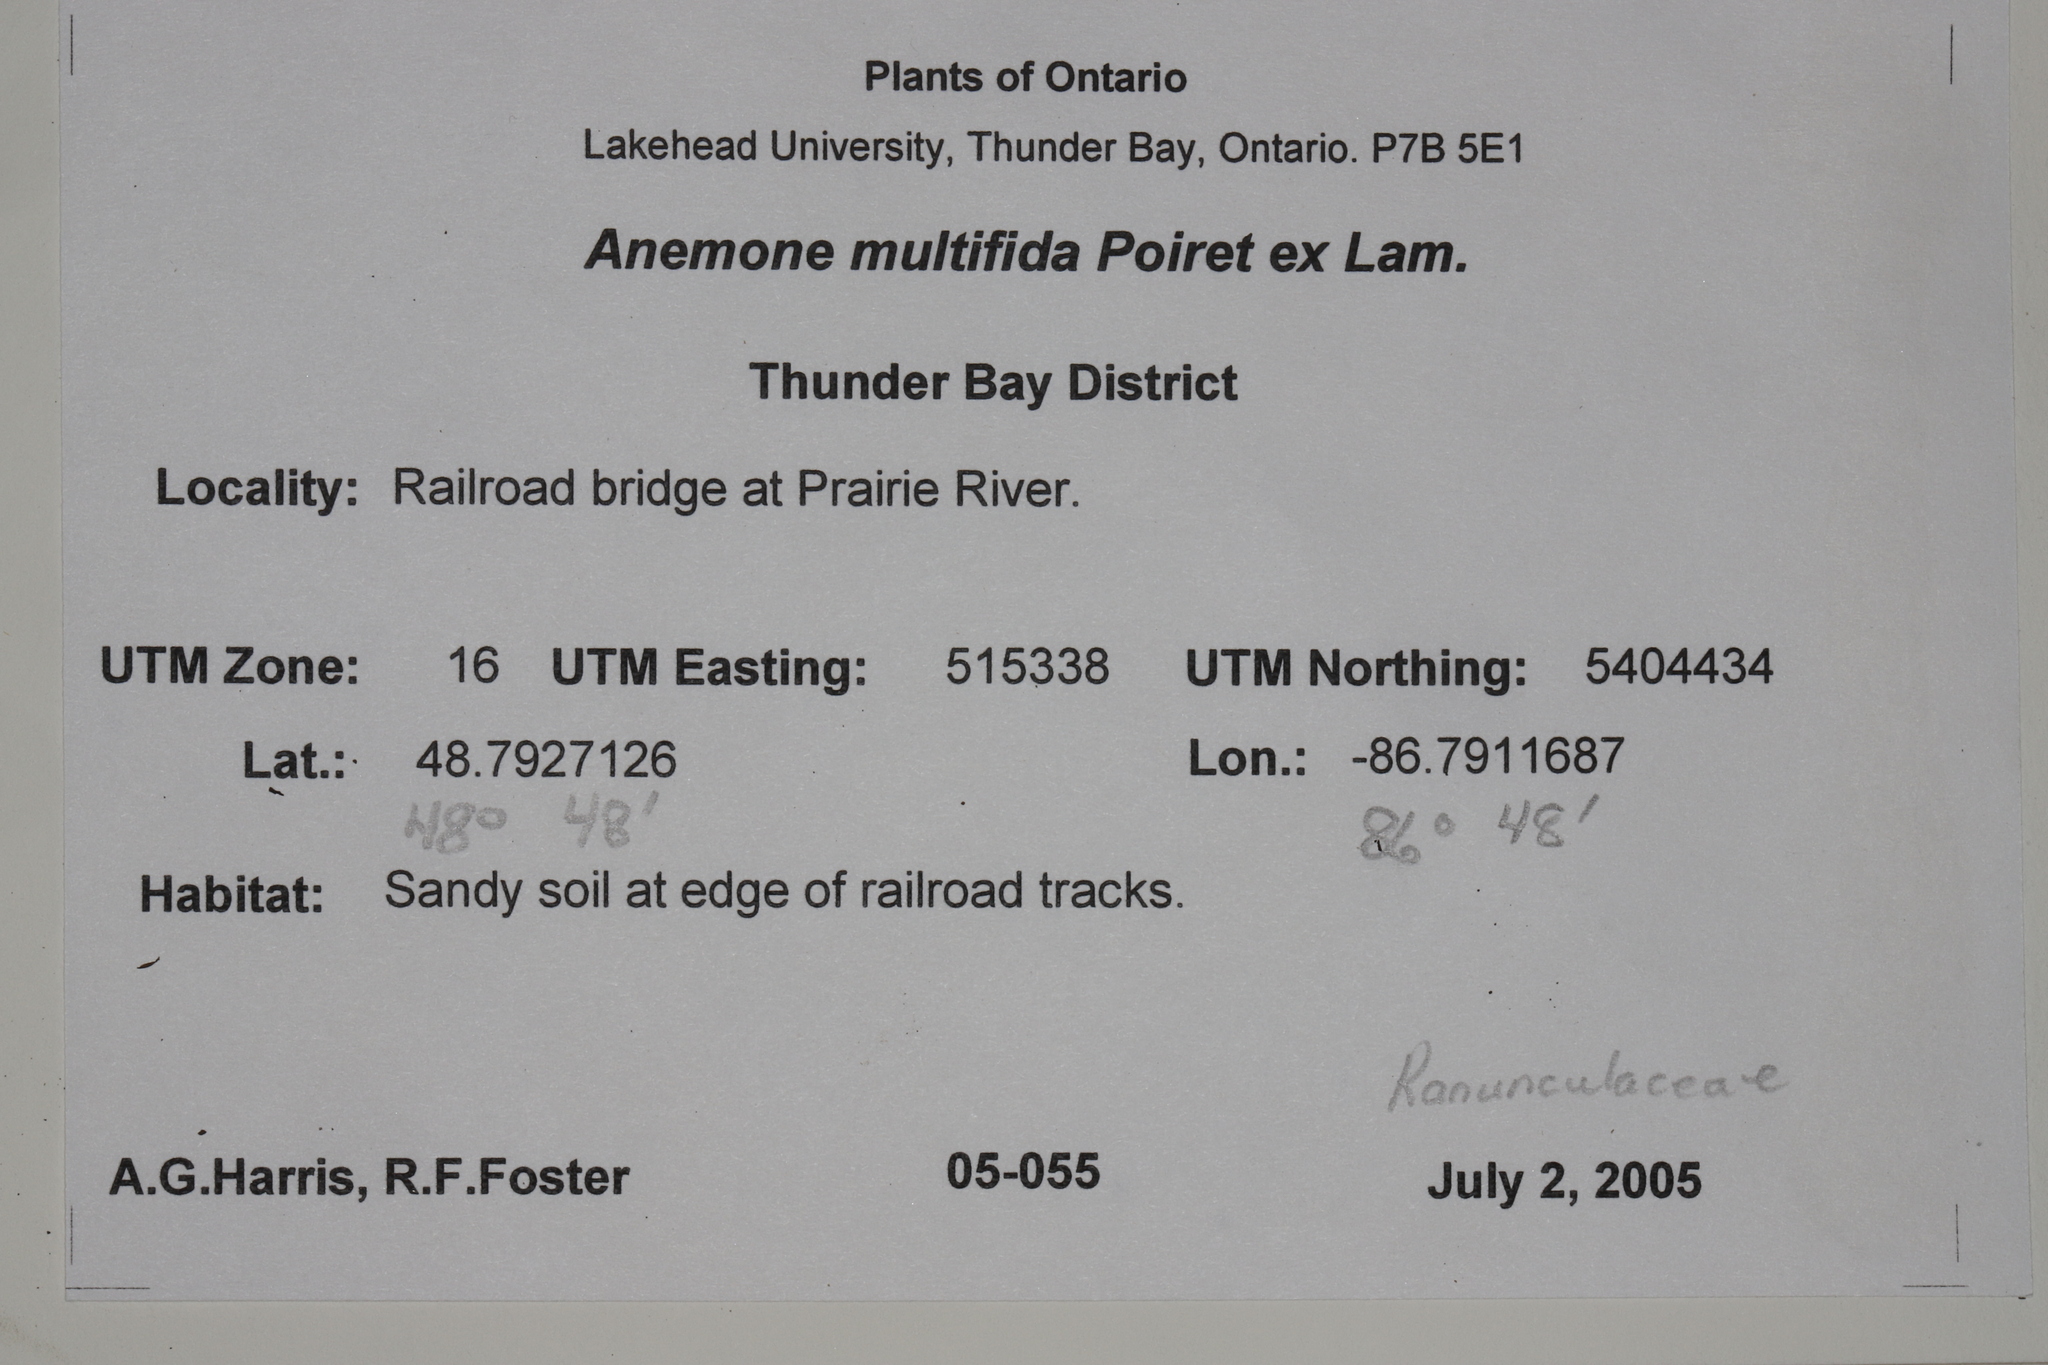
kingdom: Plantae
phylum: Tracheophyta
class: Magnoliopsida
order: Ranunculales
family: Ranunculaceae
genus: Anemone
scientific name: Anemone multifida
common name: Bird's-foot anemone
